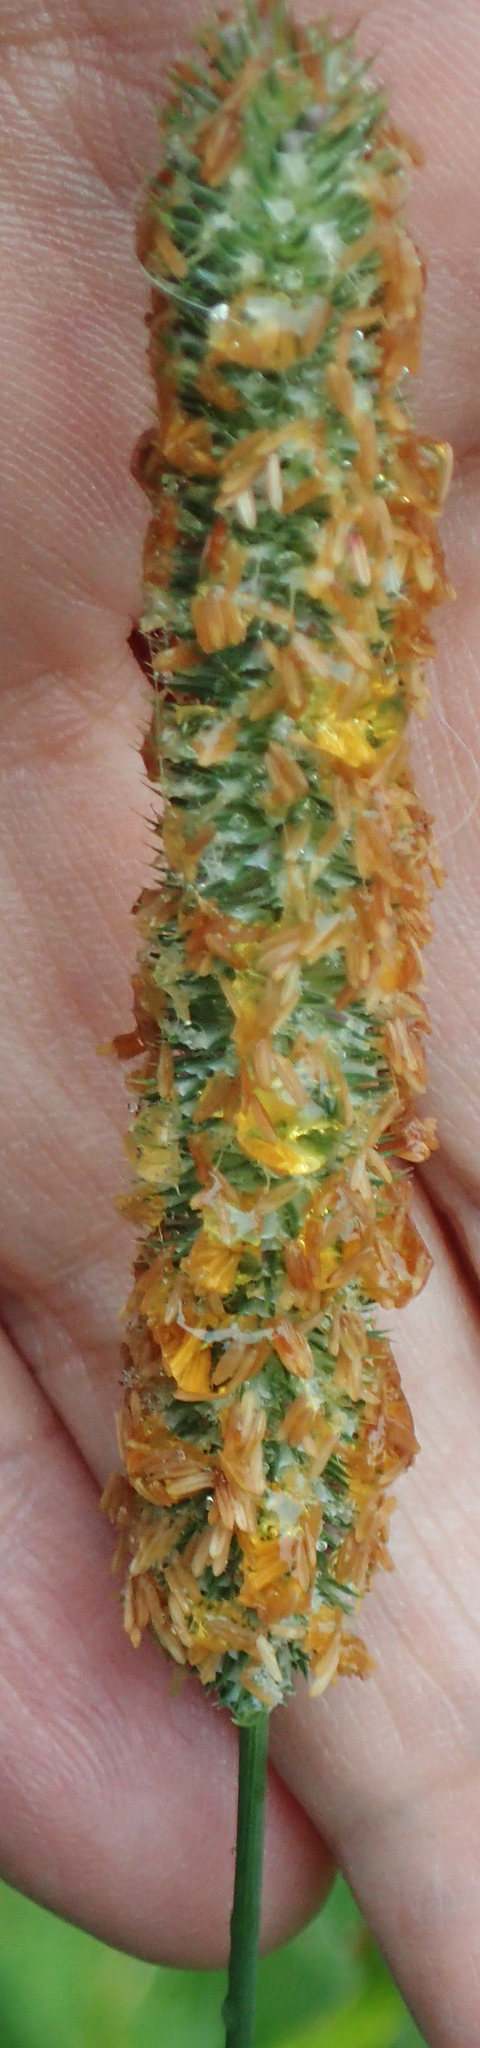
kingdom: Plantae
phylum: Tracheophyta
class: Liliopsida
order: Poales
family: Poaceae
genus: Phleum
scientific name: Phleum pratense
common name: Timothy grass
